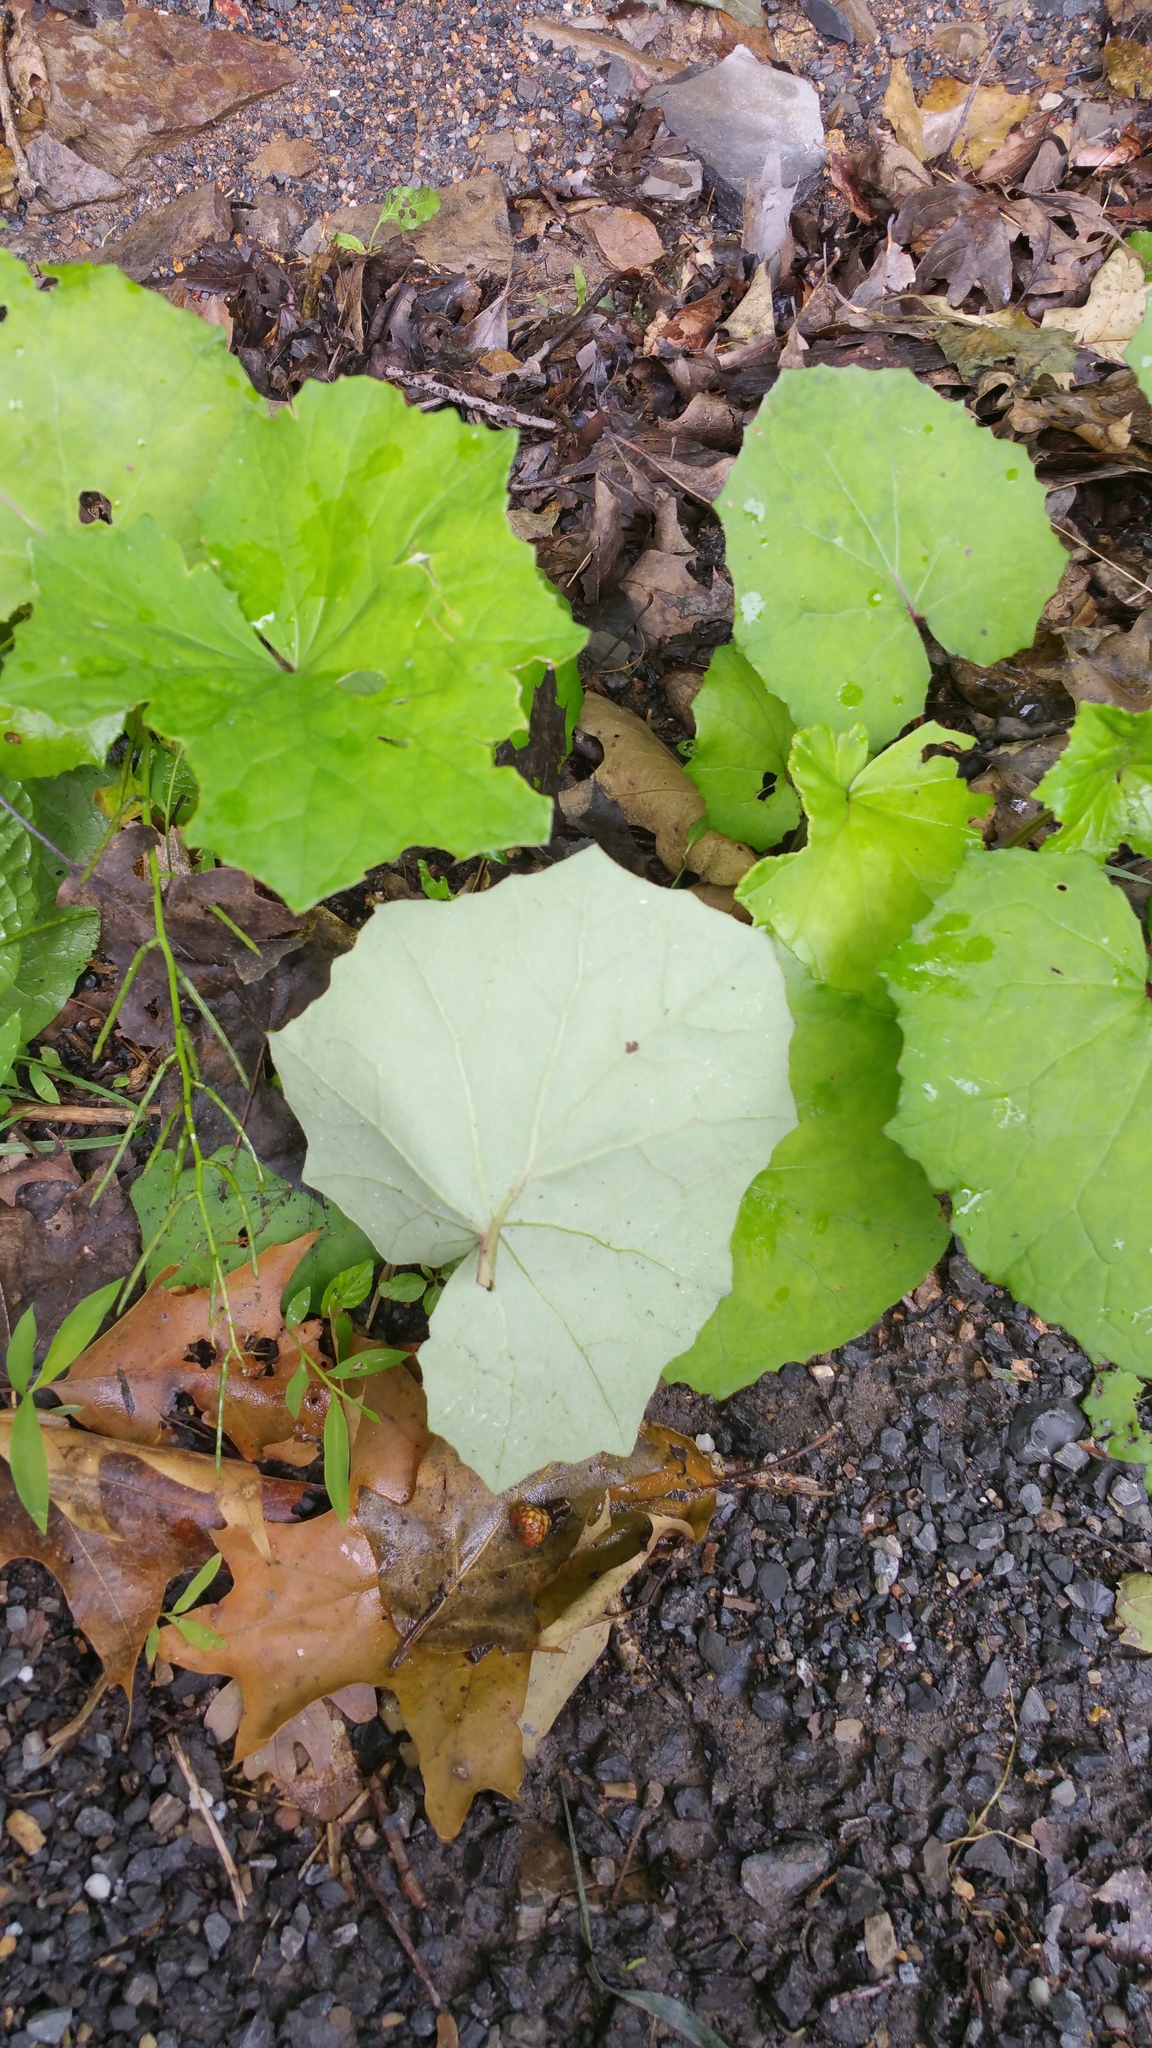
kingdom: Plantae
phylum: Tracheophyta
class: Magnoliopsida
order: Asterales
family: Asteraceae
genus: Tussilago
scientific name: Tussilago farfara
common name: Coltsfoot
